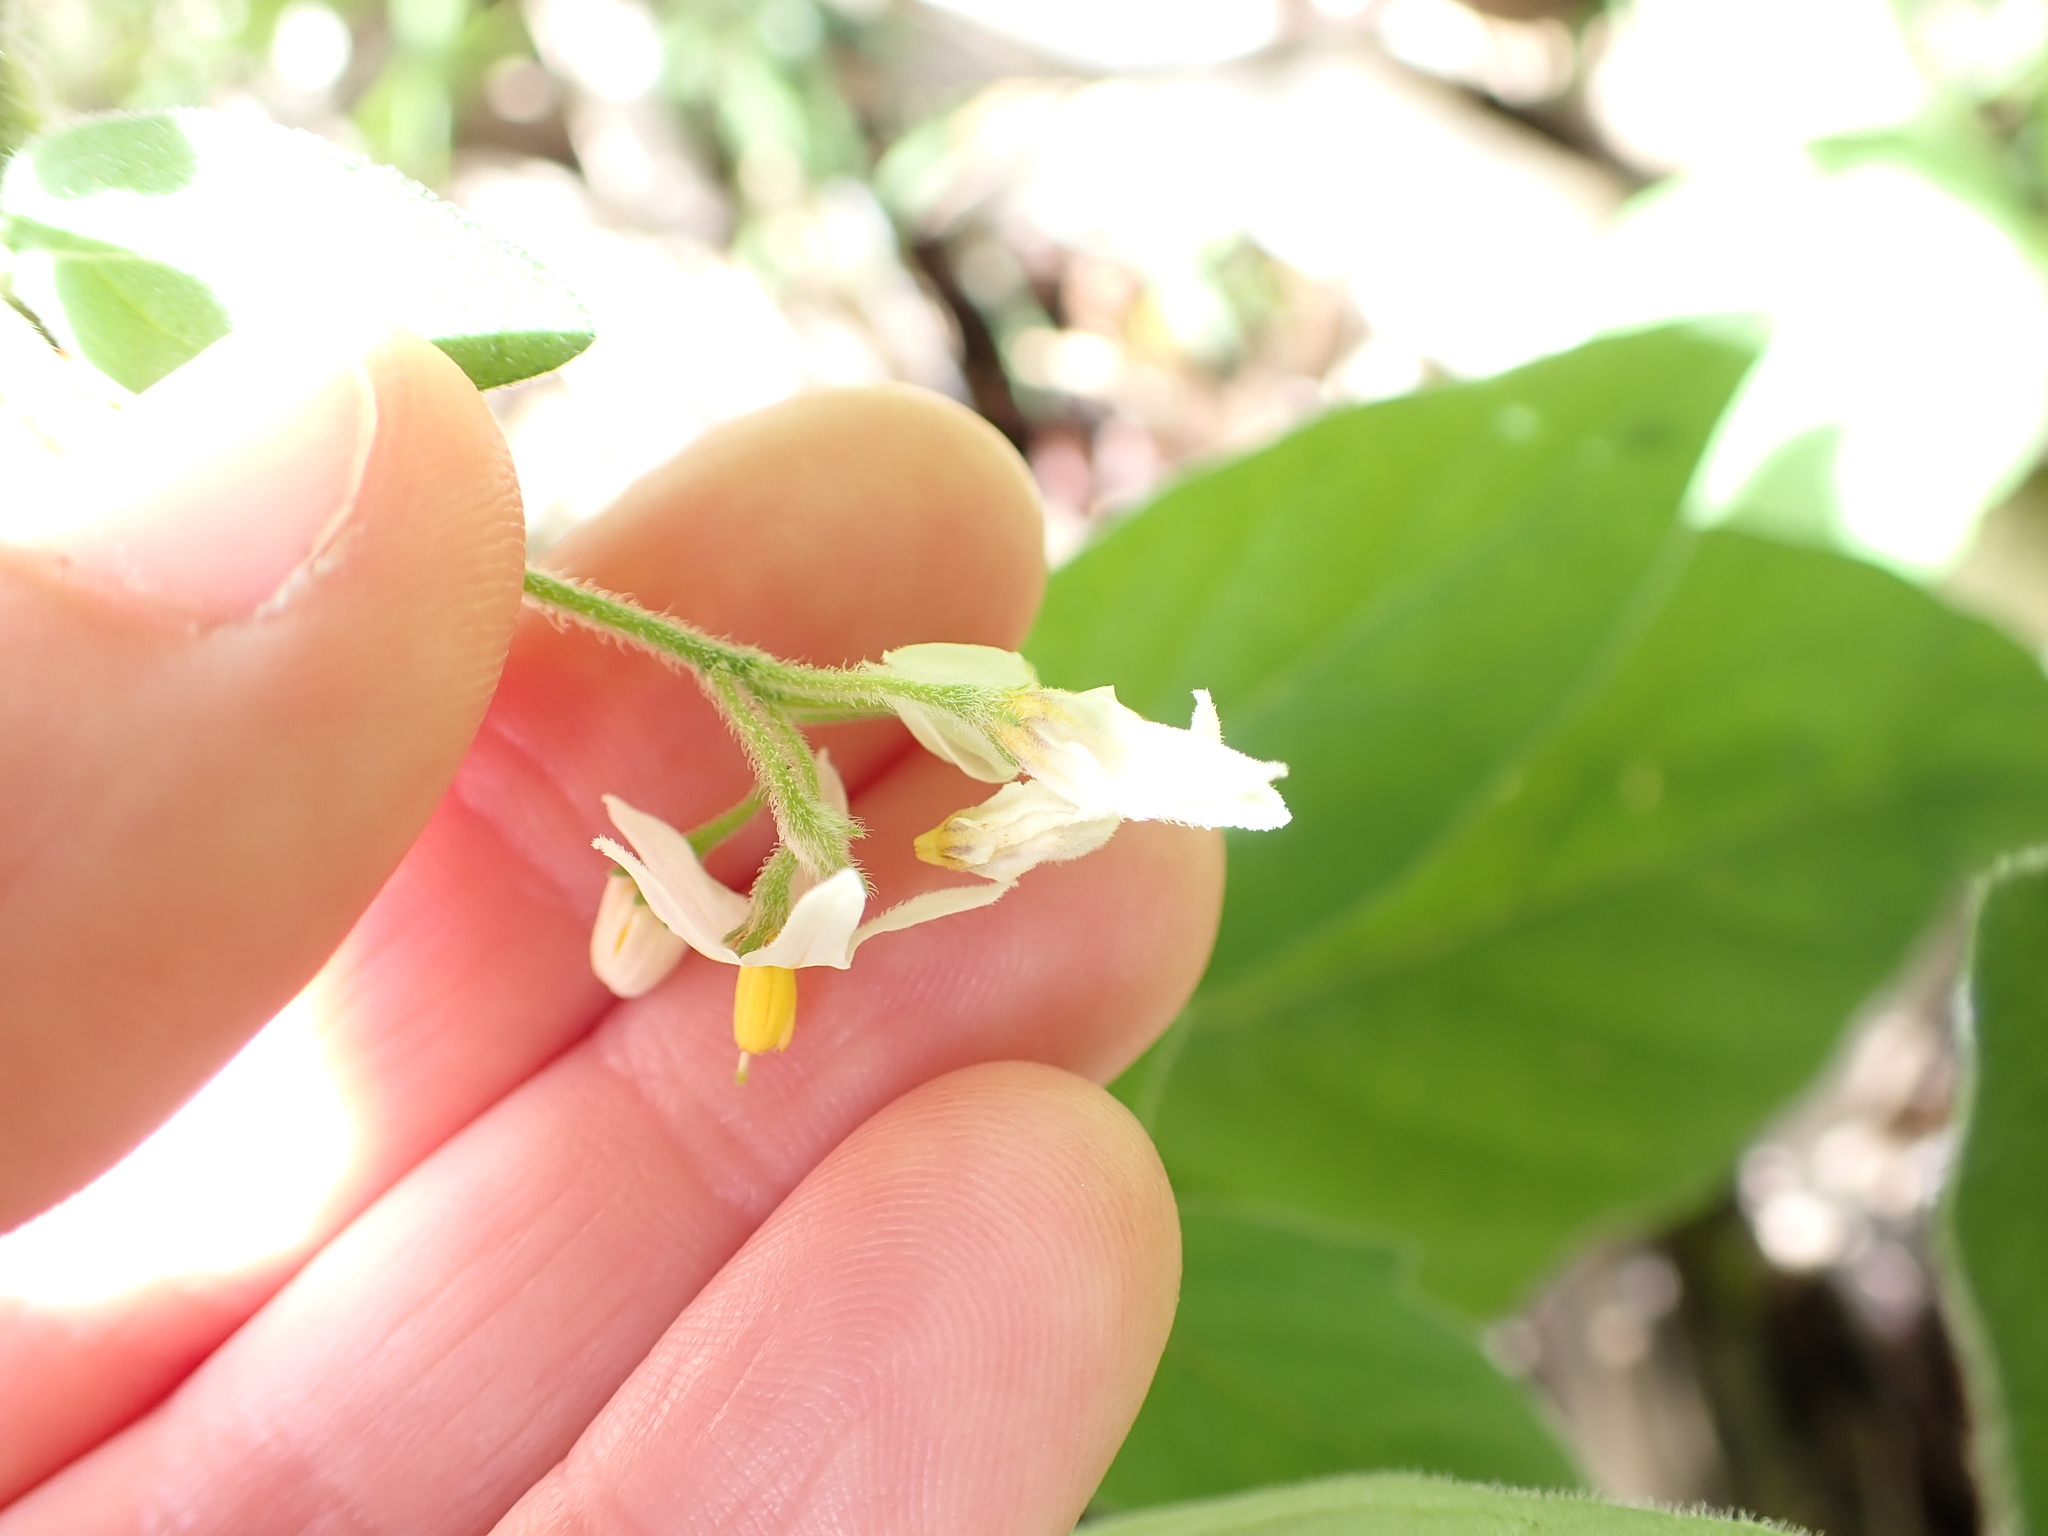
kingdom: Plantae
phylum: Tracheophyta
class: Magnoliopsida
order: Solanales
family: Solanaceae
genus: Solanum
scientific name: Solanum chenopodioides
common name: Tall nightshade
